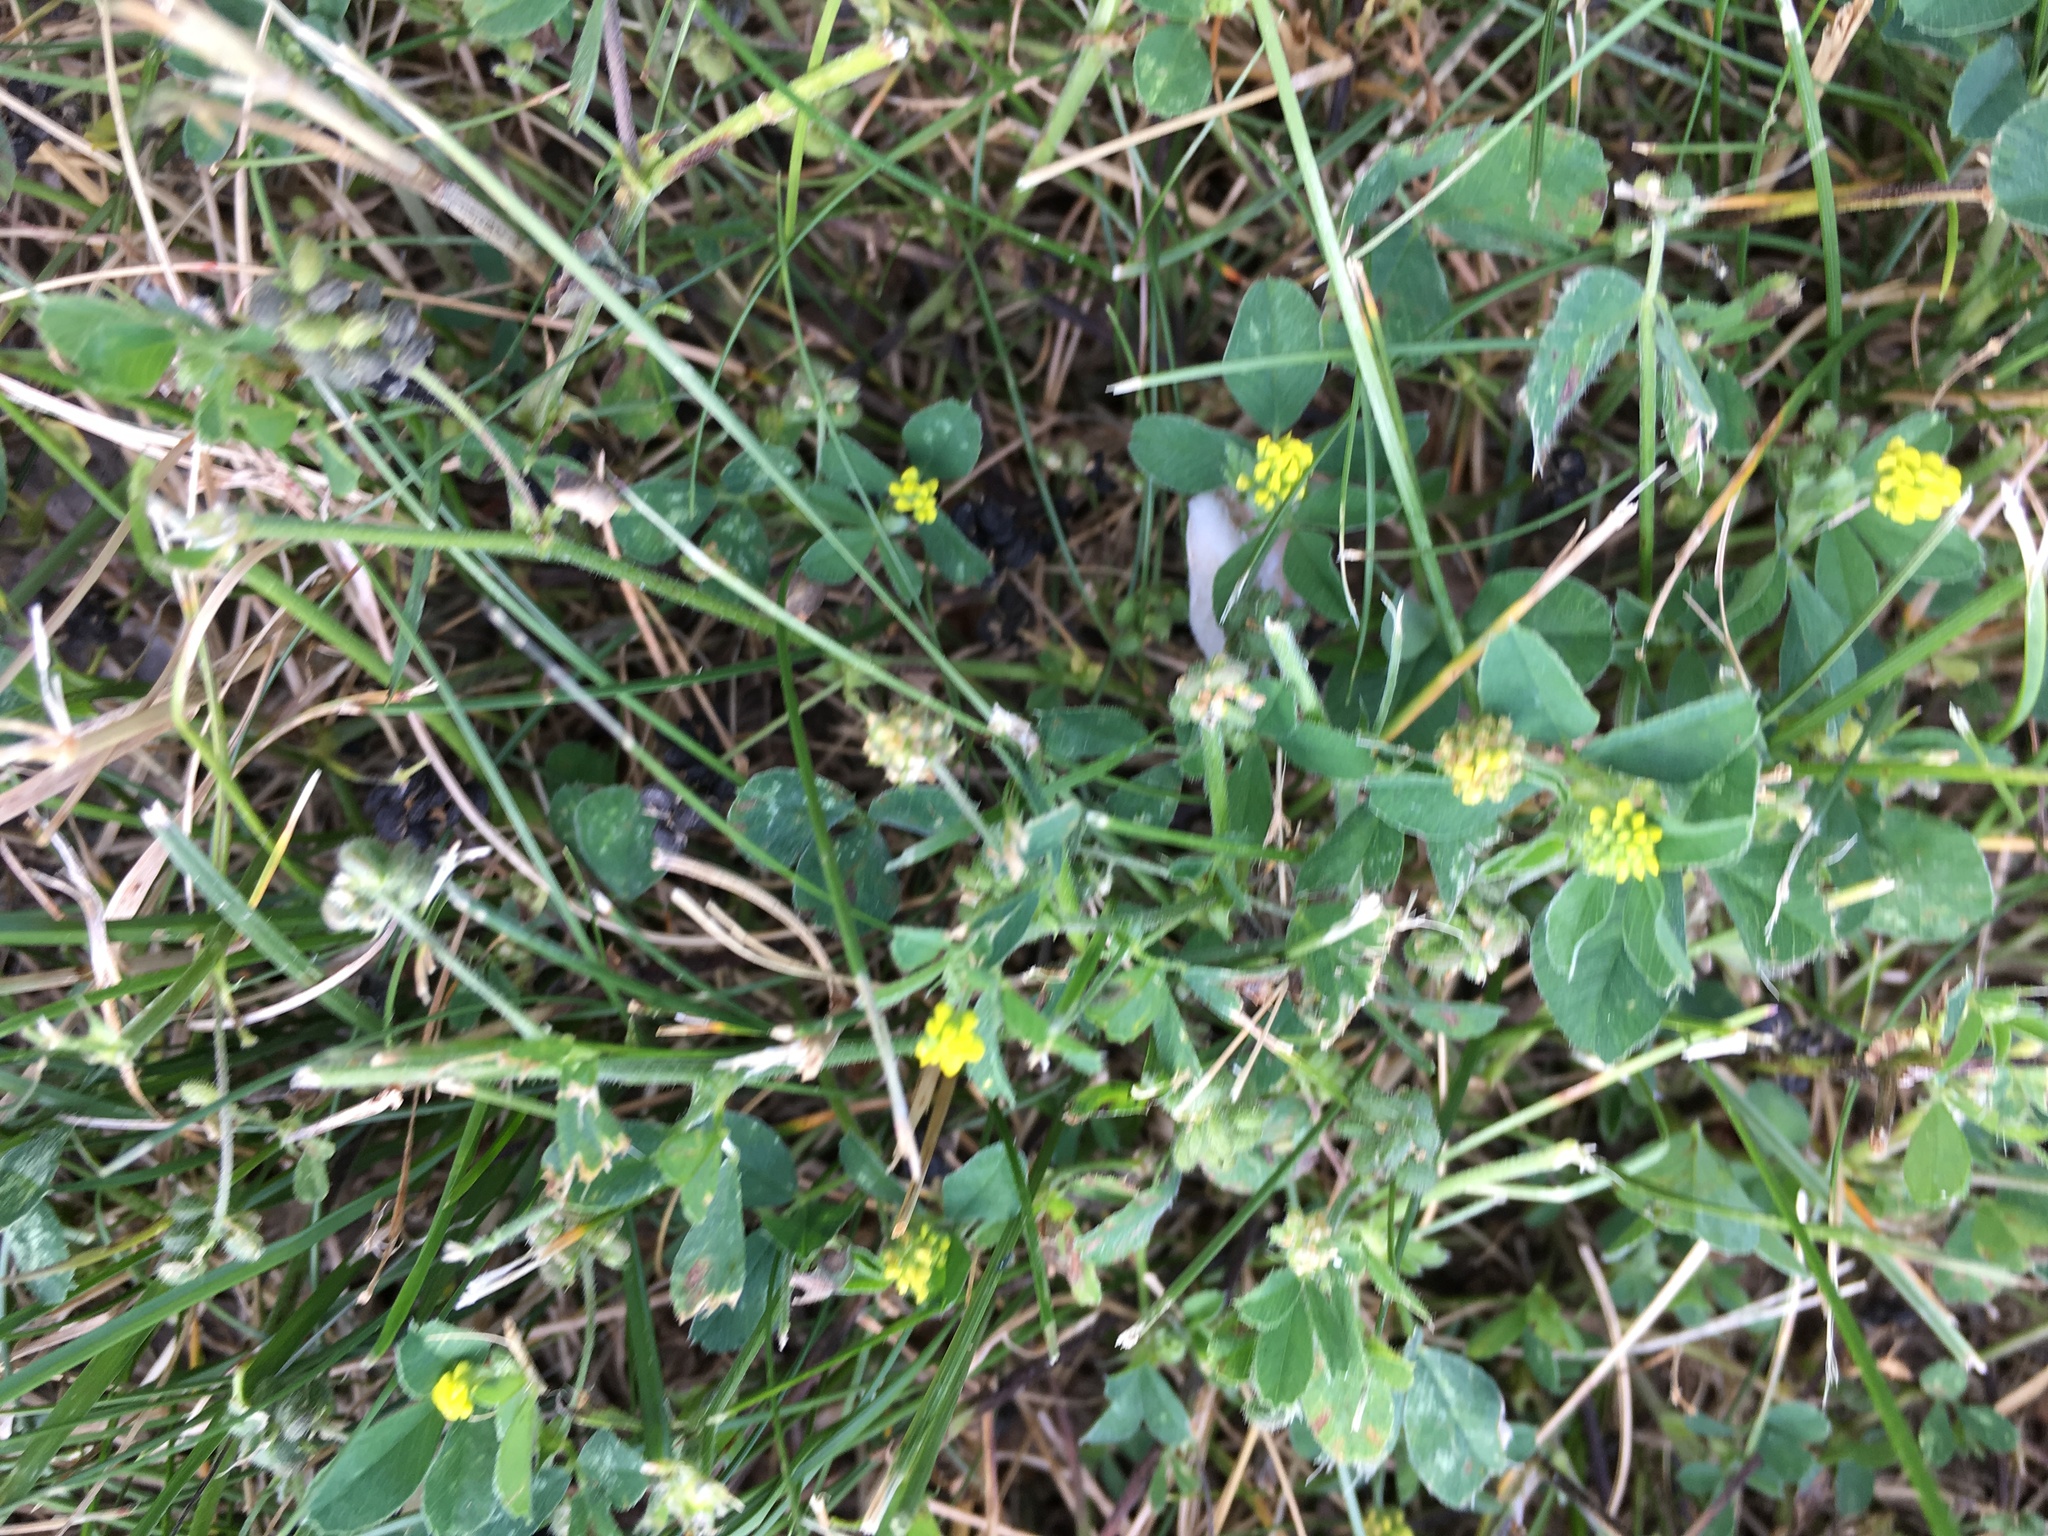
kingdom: Plantae
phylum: Tracheophyta
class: Magnoliopsida
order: Fabales
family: Fabaceae
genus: Medicago
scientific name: Medicago lupulina
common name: Black medick
